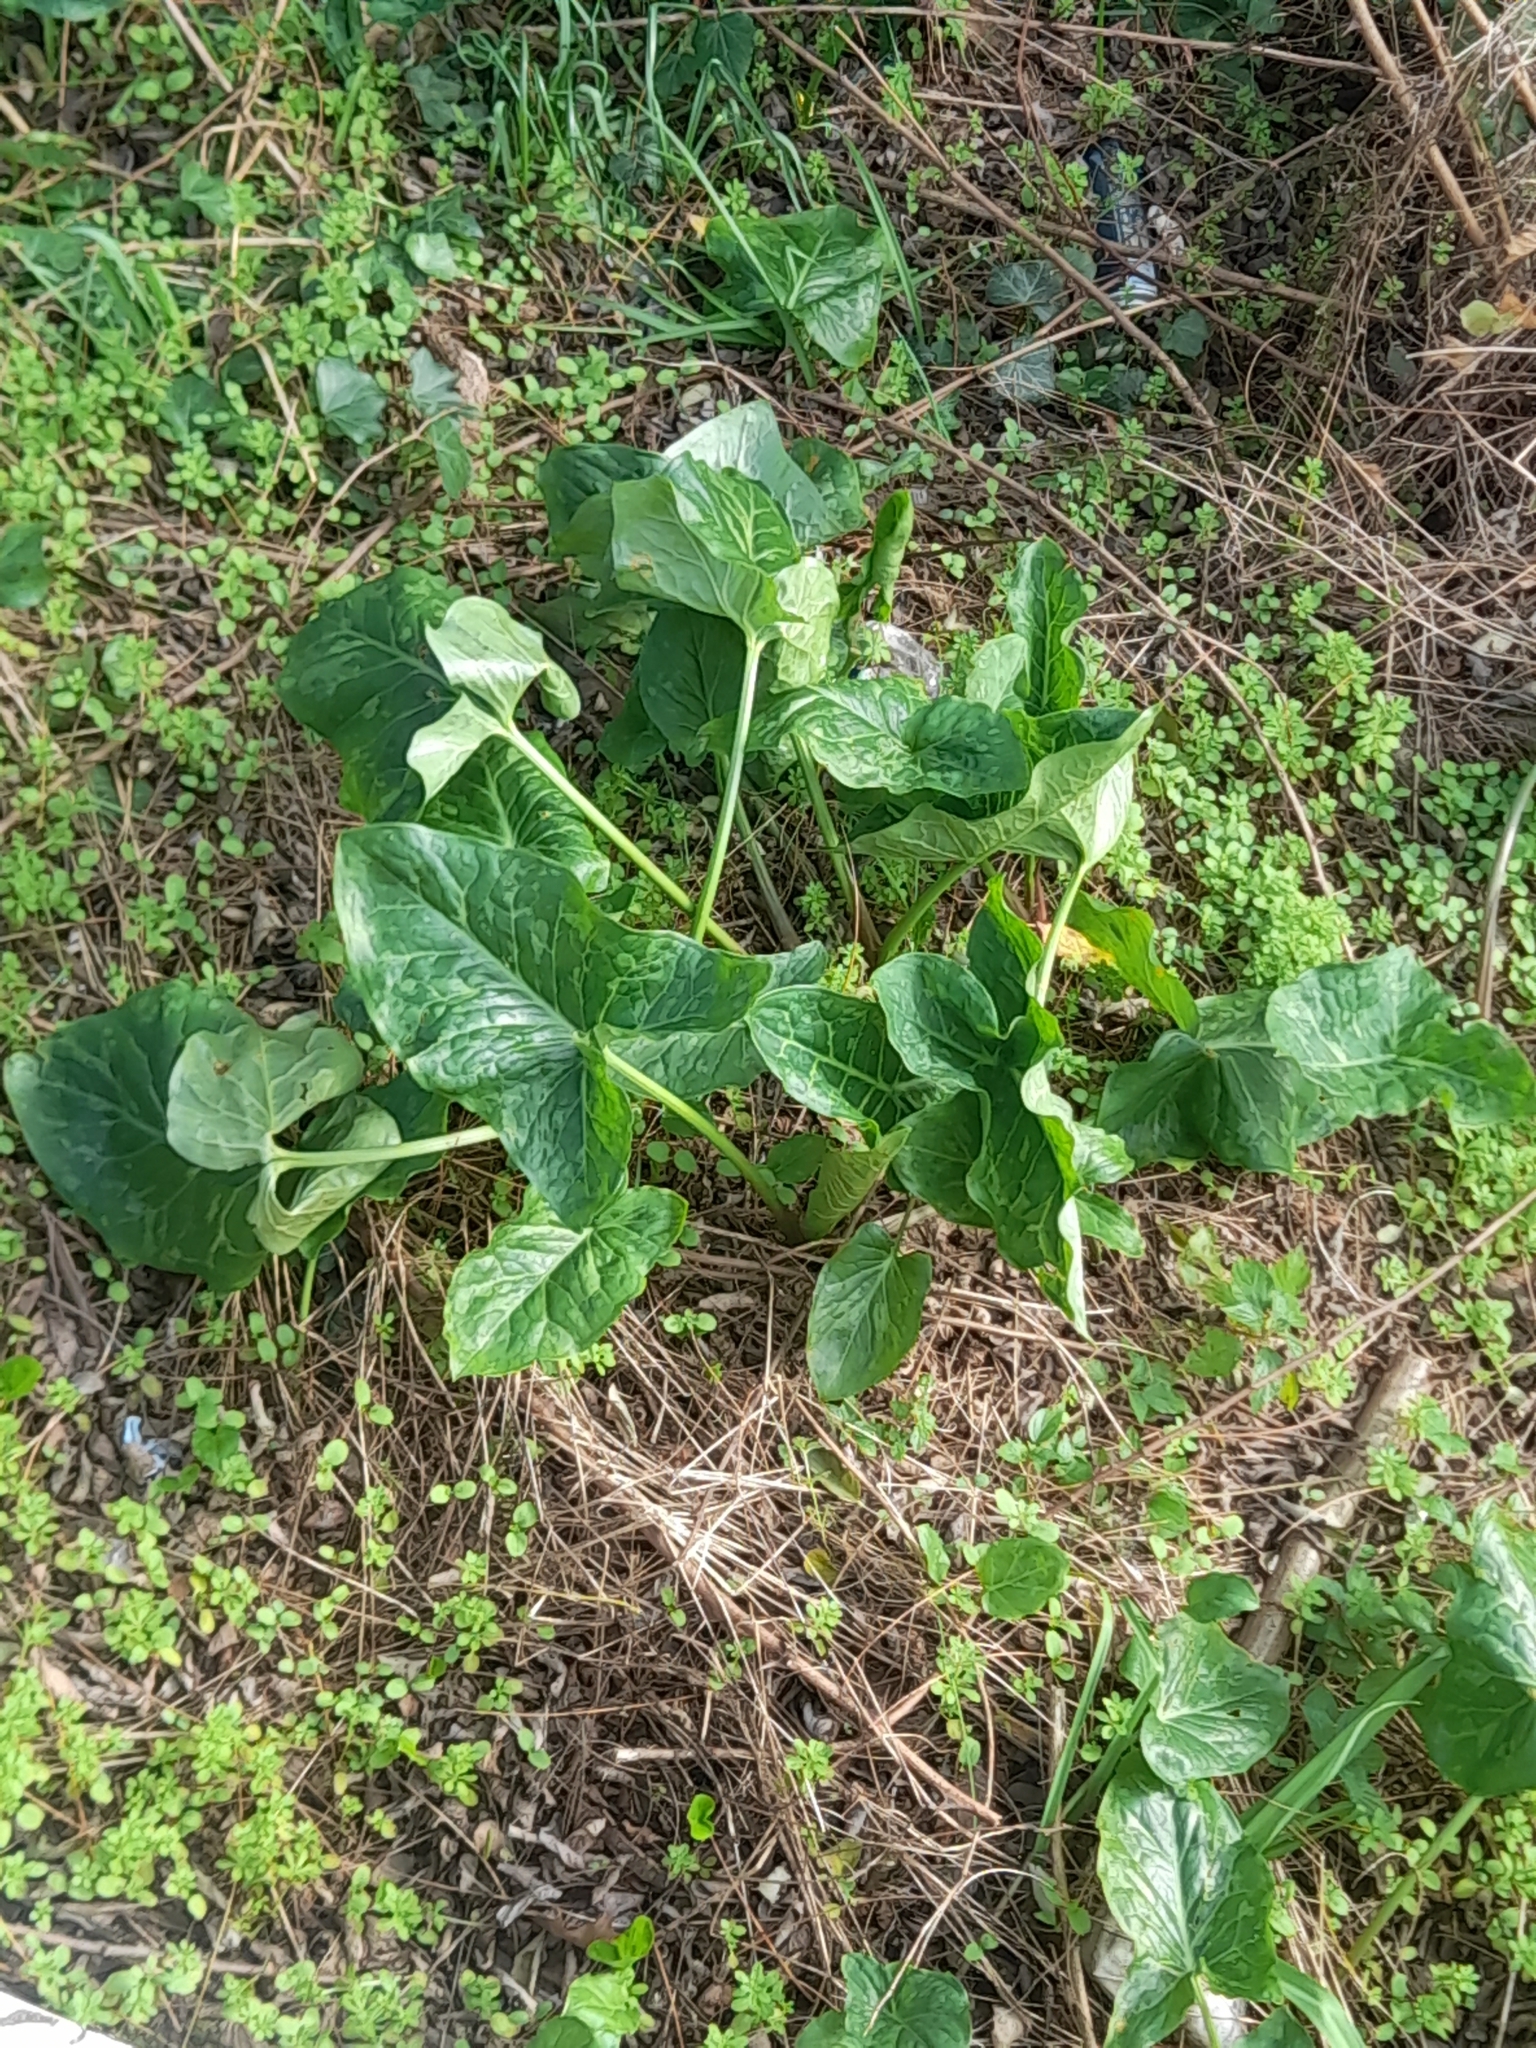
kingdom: Plantae
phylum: Tracheophyta
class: Liliopsida
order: Alismatales
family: Araceae
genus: Arum
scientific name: Arum italicum
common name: Italian lords-and-ladies
